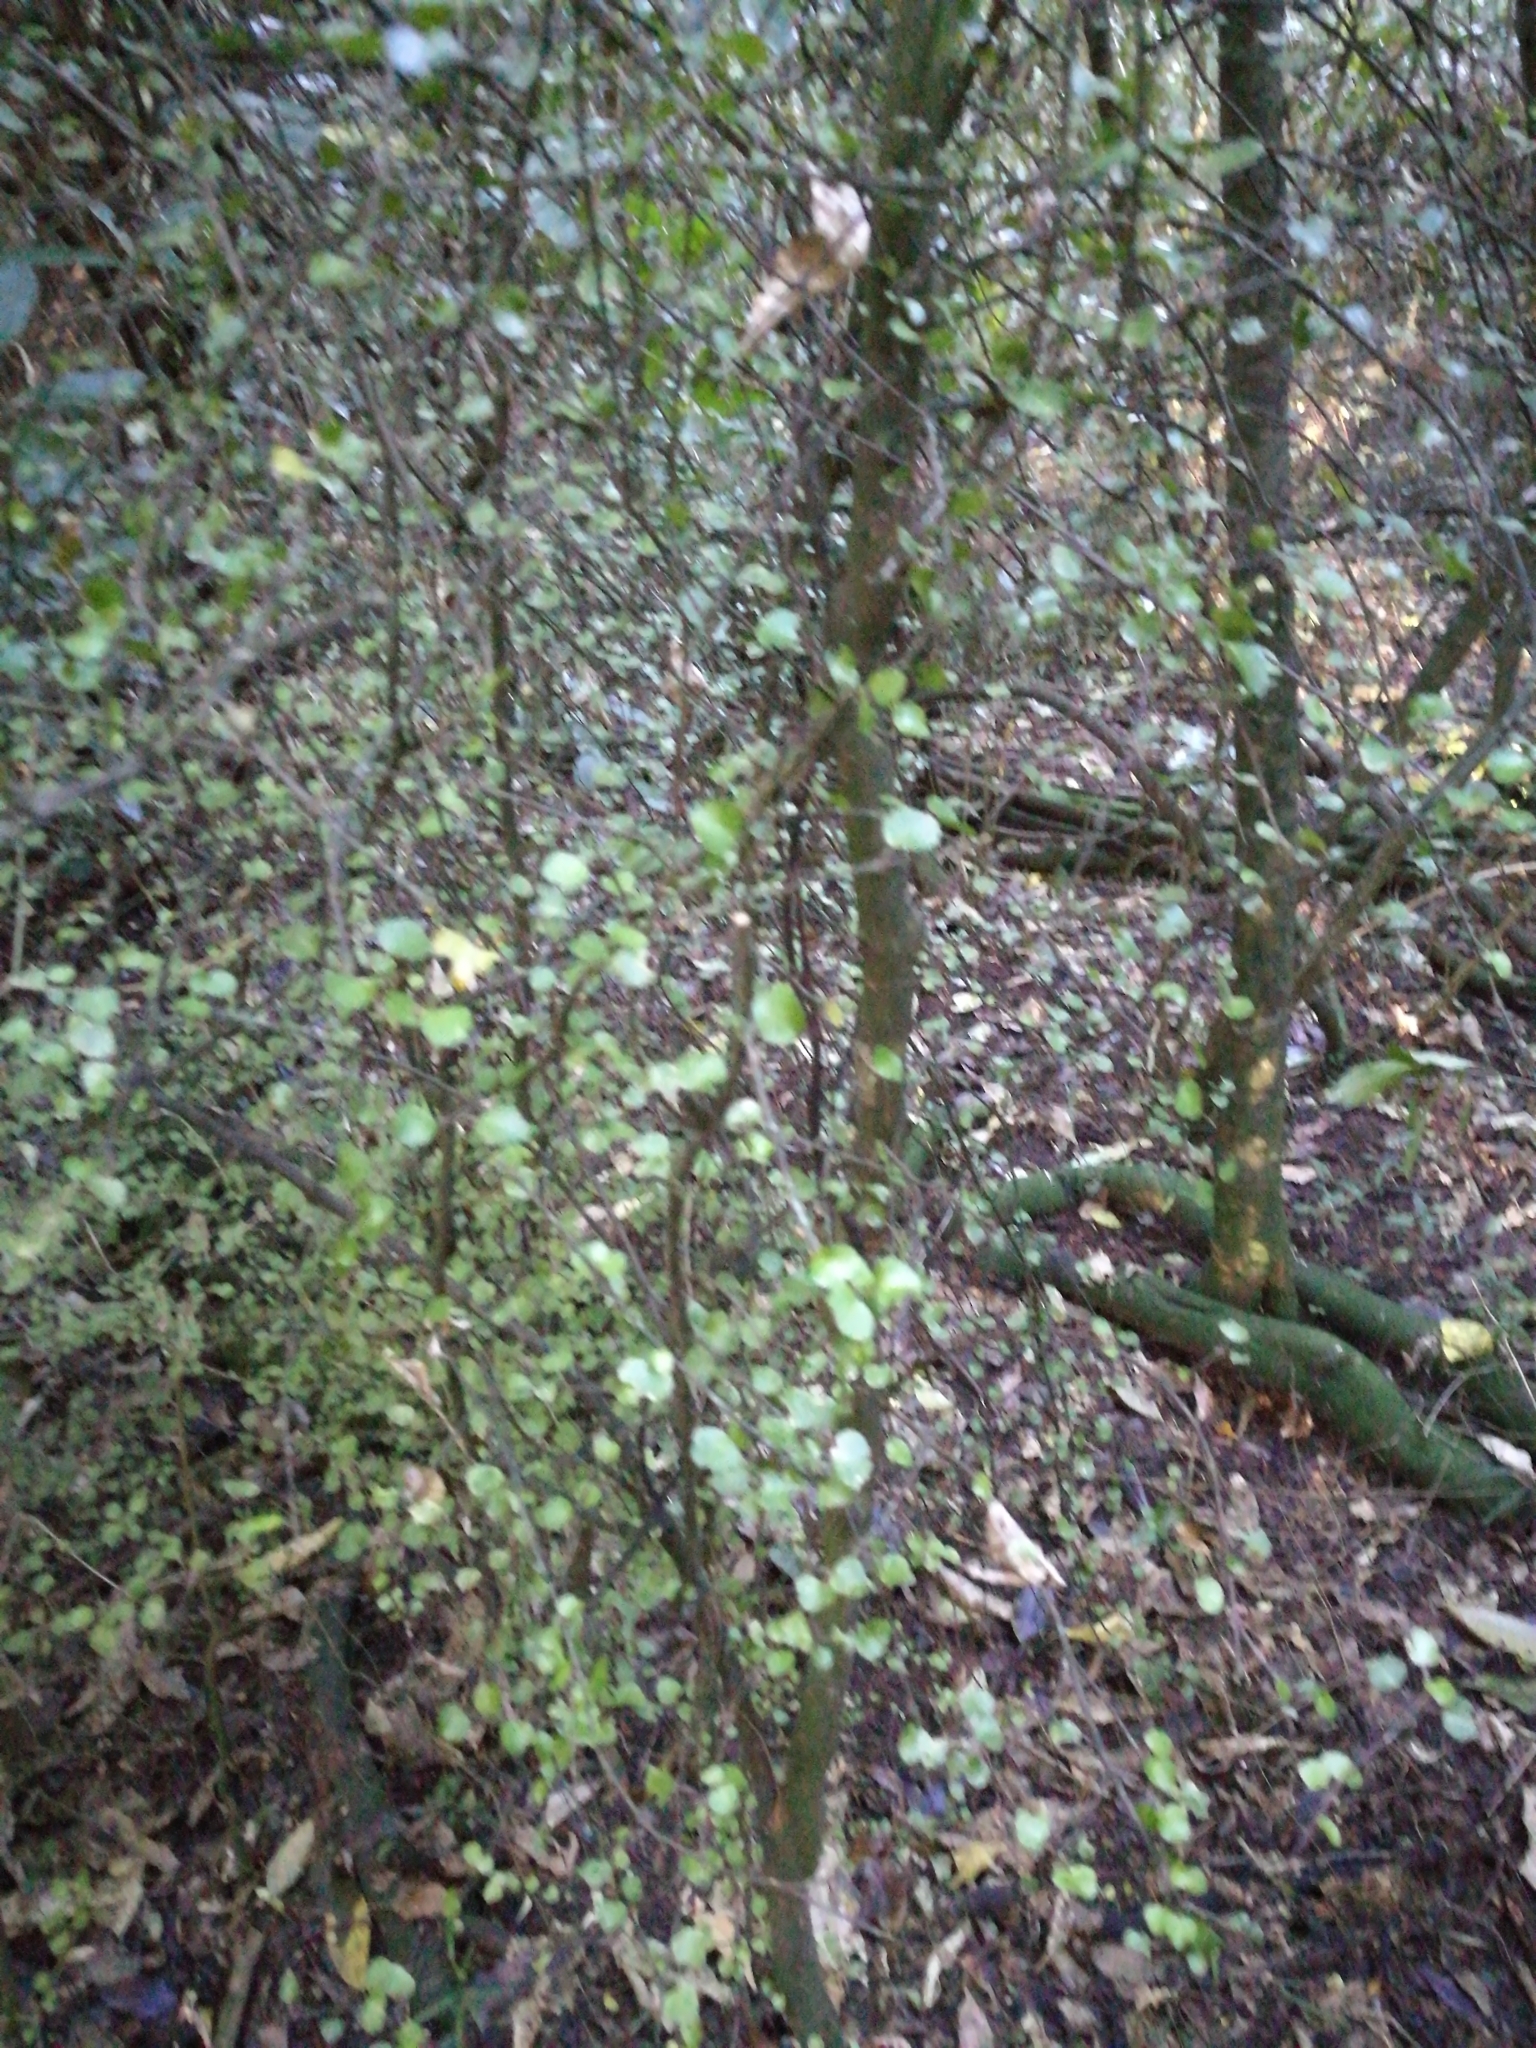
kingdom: Plantae
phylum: Tracheophyta
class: Magnoliopsida
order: Sapindales
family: Rutaceae
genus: Melicope
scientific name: Melicope simplex
